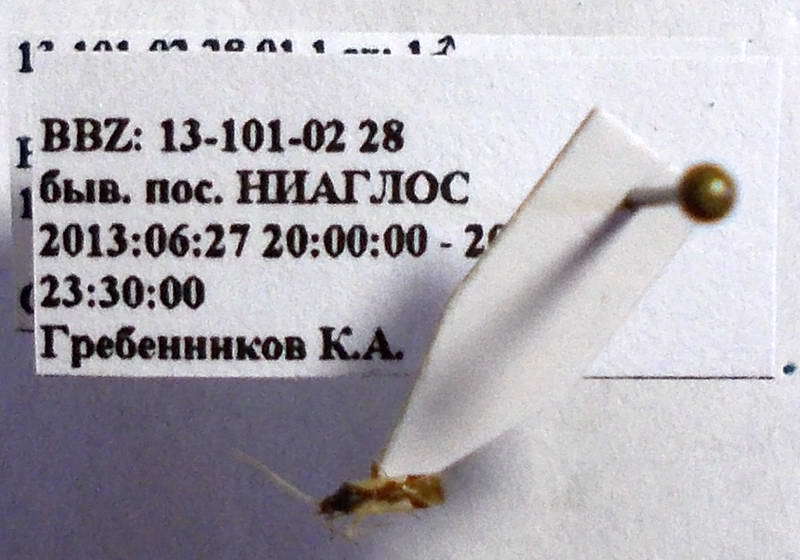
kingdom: Animalia
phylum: Arthropoda
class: Insecta
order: Hemiptera
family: Miridae
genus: Hallodapus
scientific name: Hallodapus suturalis
